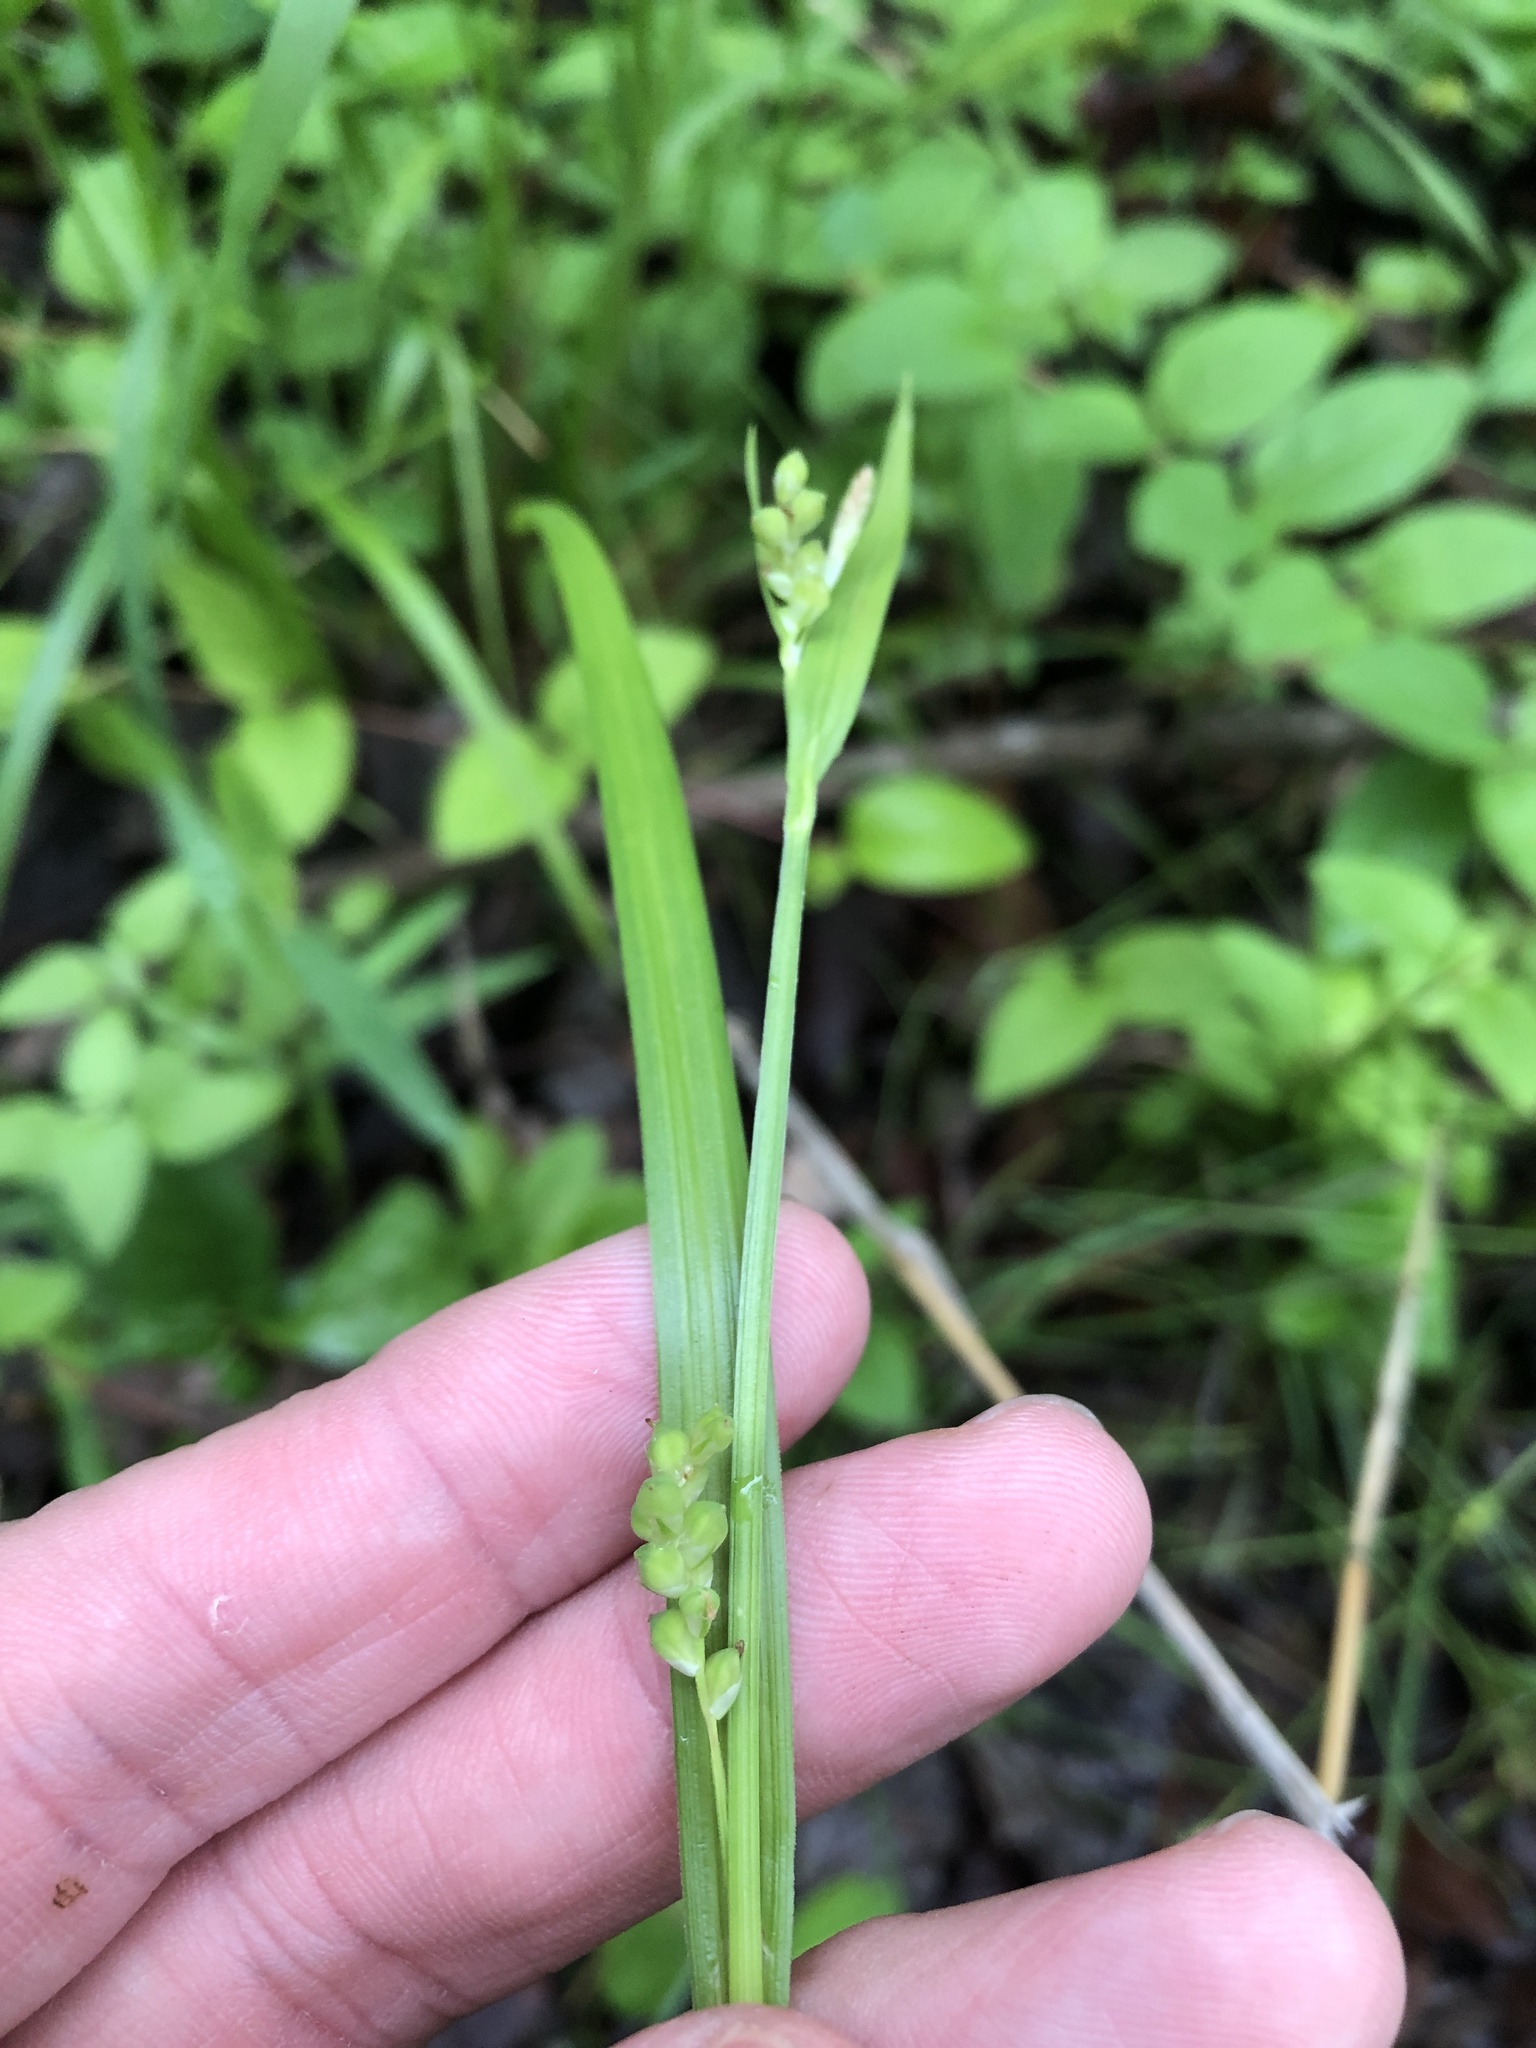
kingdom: Plantae
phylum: Tracheophyta
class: Liliopsida
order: Poales
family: Cyperaceae
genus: Carex
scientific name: Carex blanda
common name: Bland sedge
